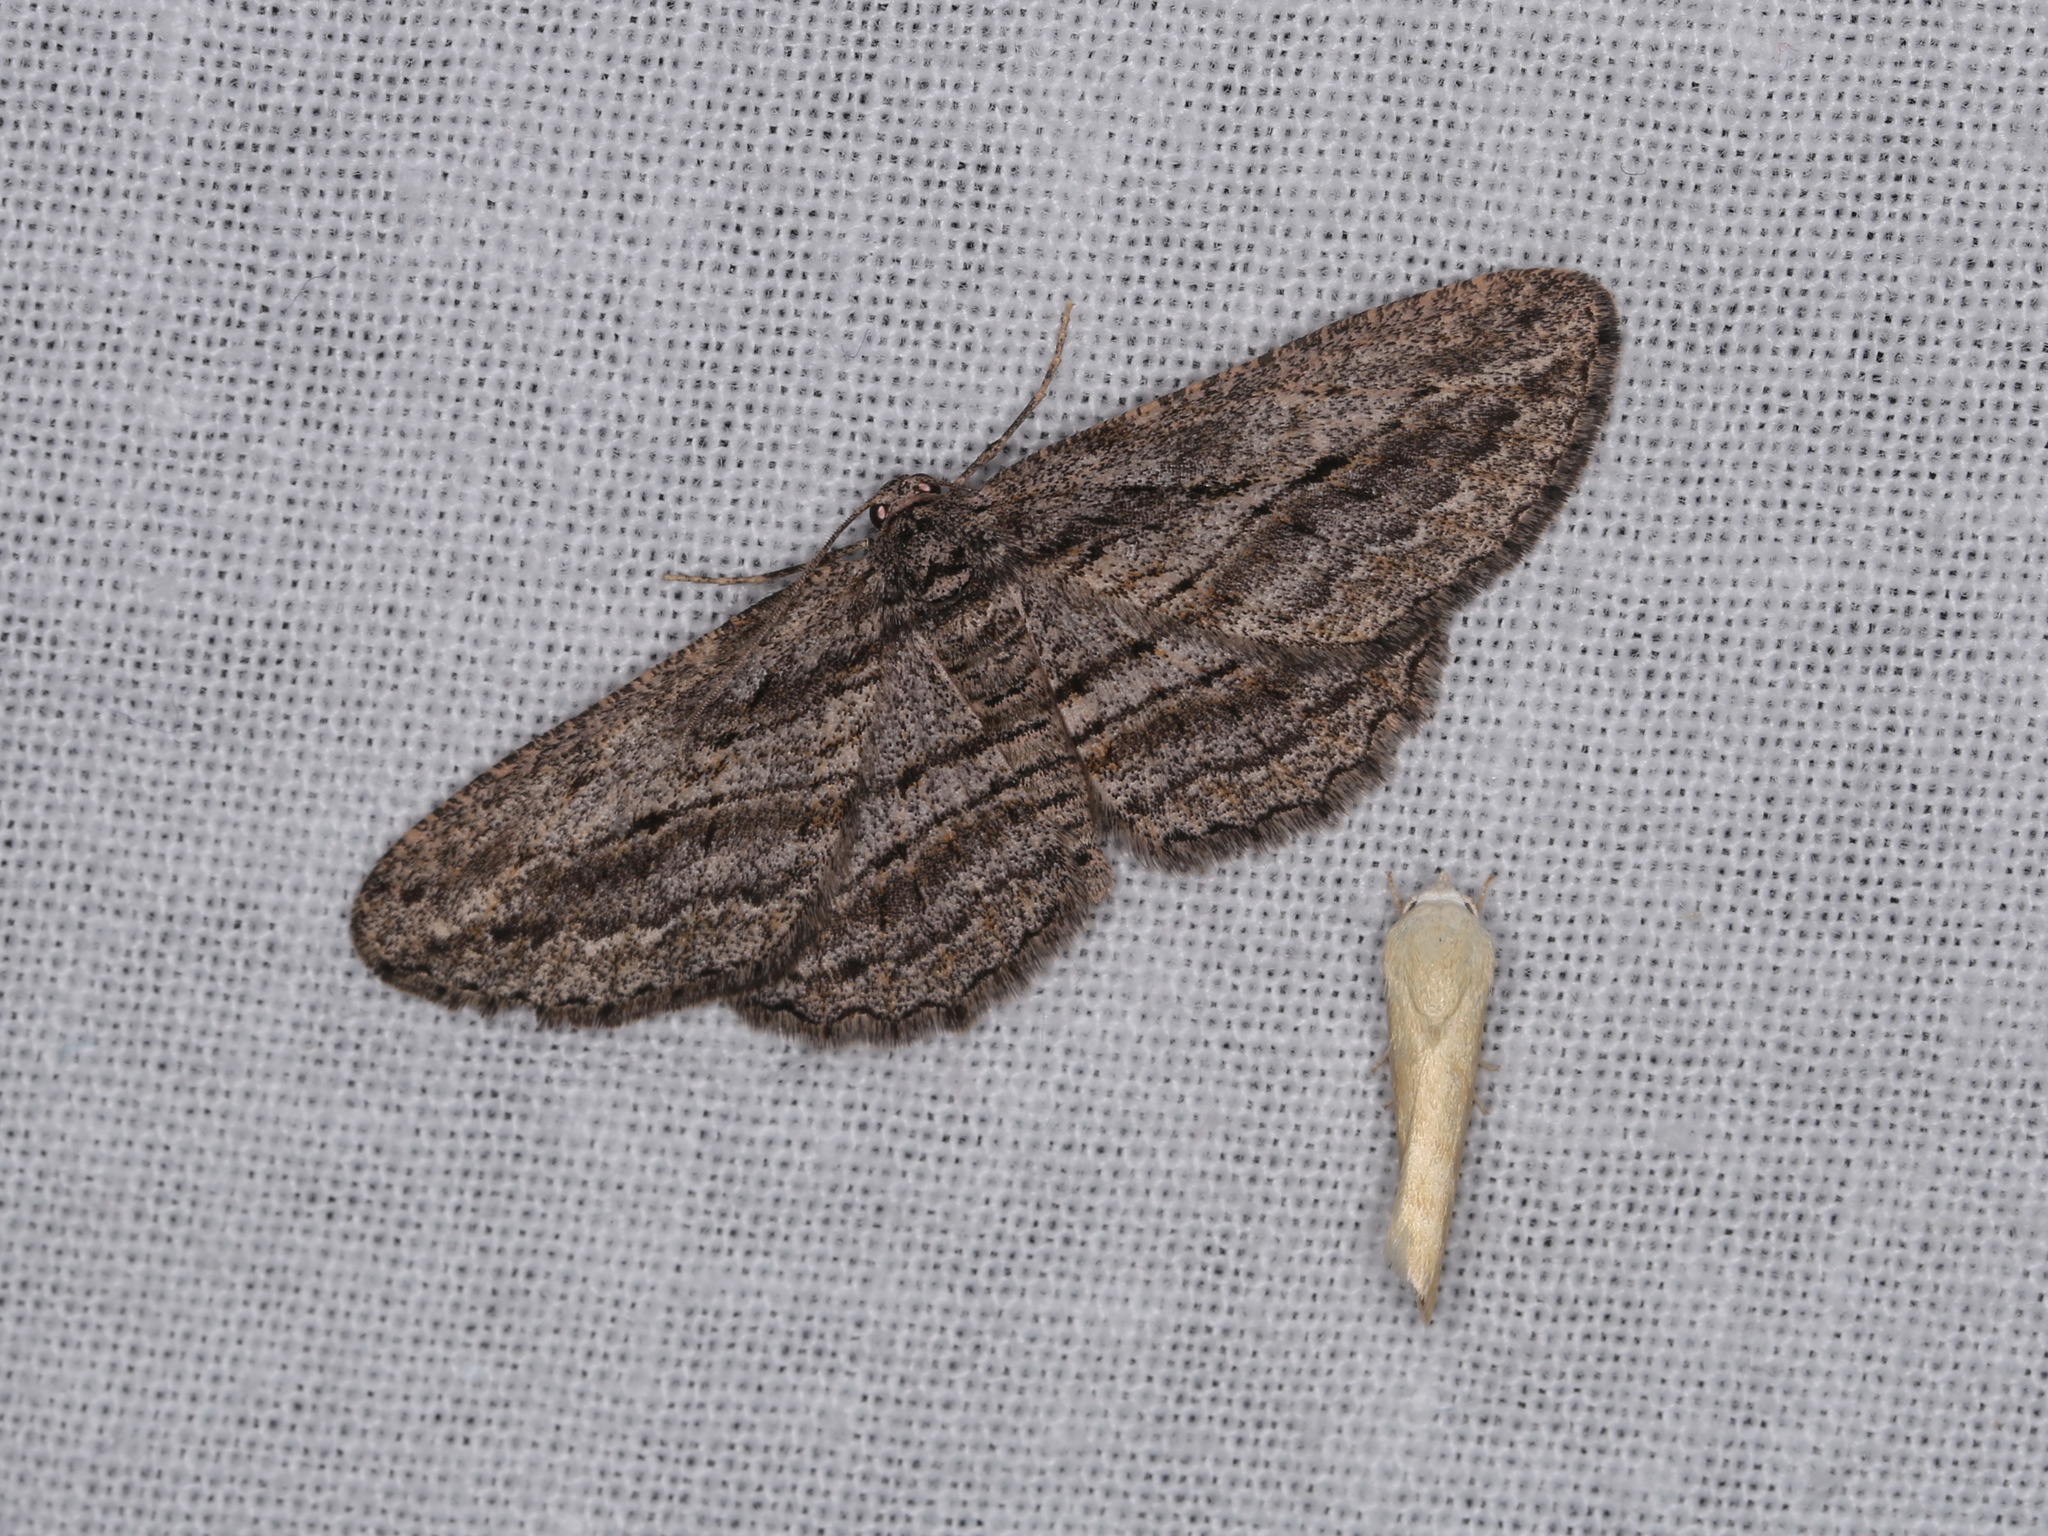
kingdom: Animalia
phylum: Arthropoda
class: Insecta
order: Lepidoptera
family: Geometridae
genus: Psilosticha
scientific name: Psilosticha loxoschema
